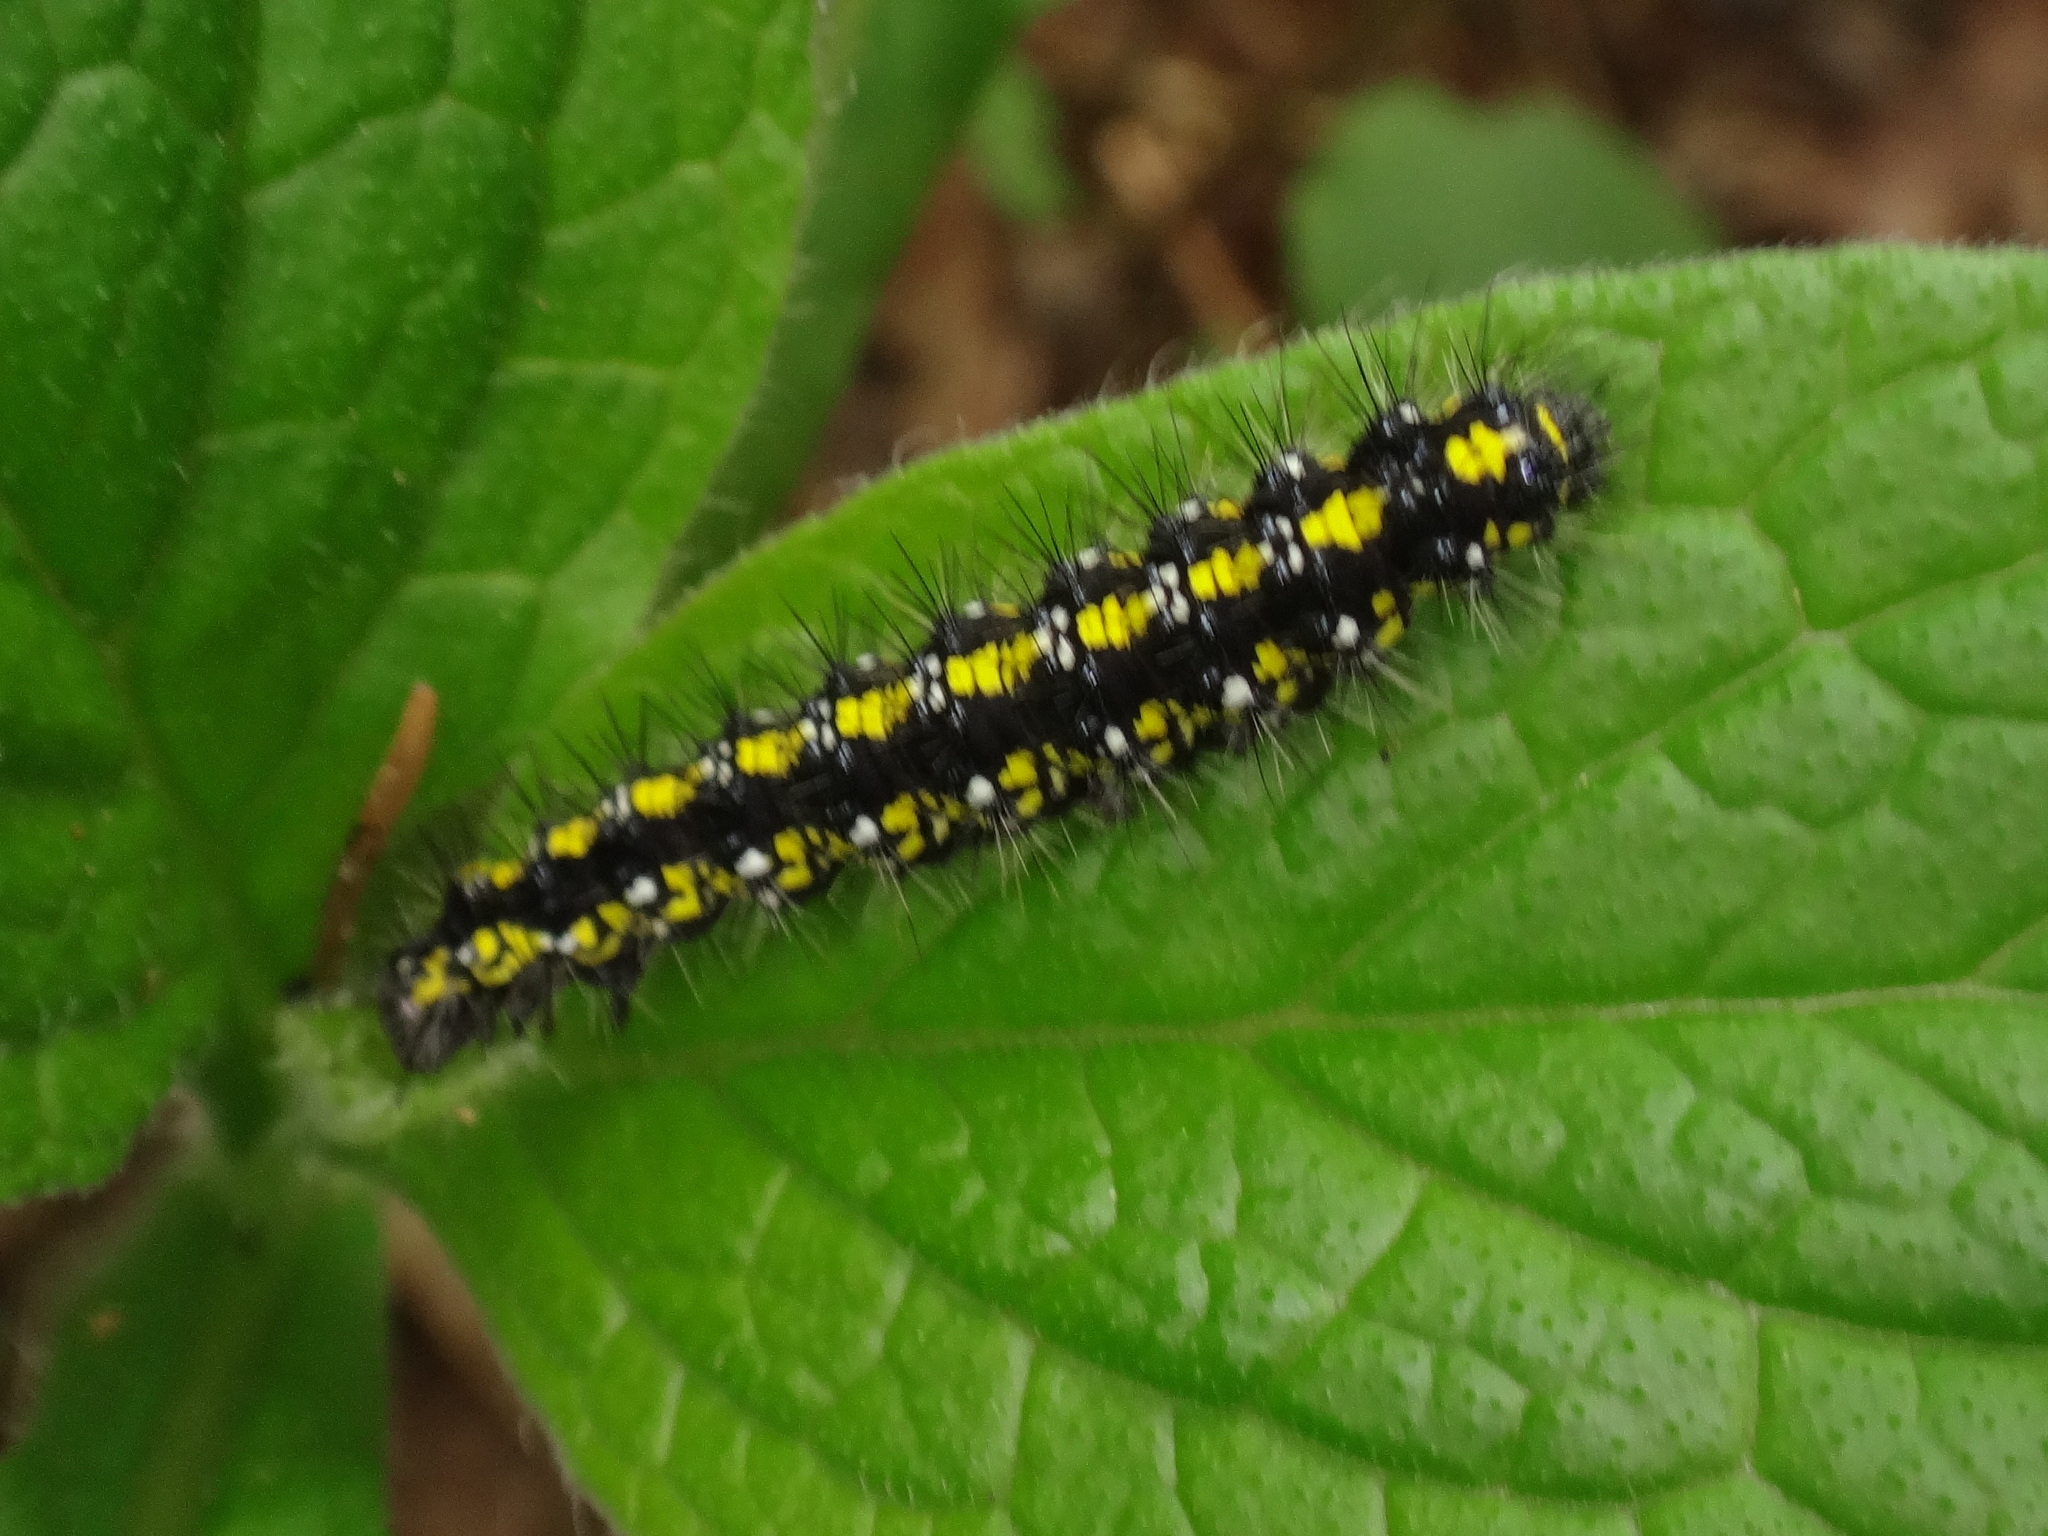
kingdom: Animalia
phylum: Arthropoda
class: Insecta
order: Lepidoptera
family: Erebidae
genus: Callimorpha
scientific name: Callimorpha dominula
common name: Scarlet tiger
